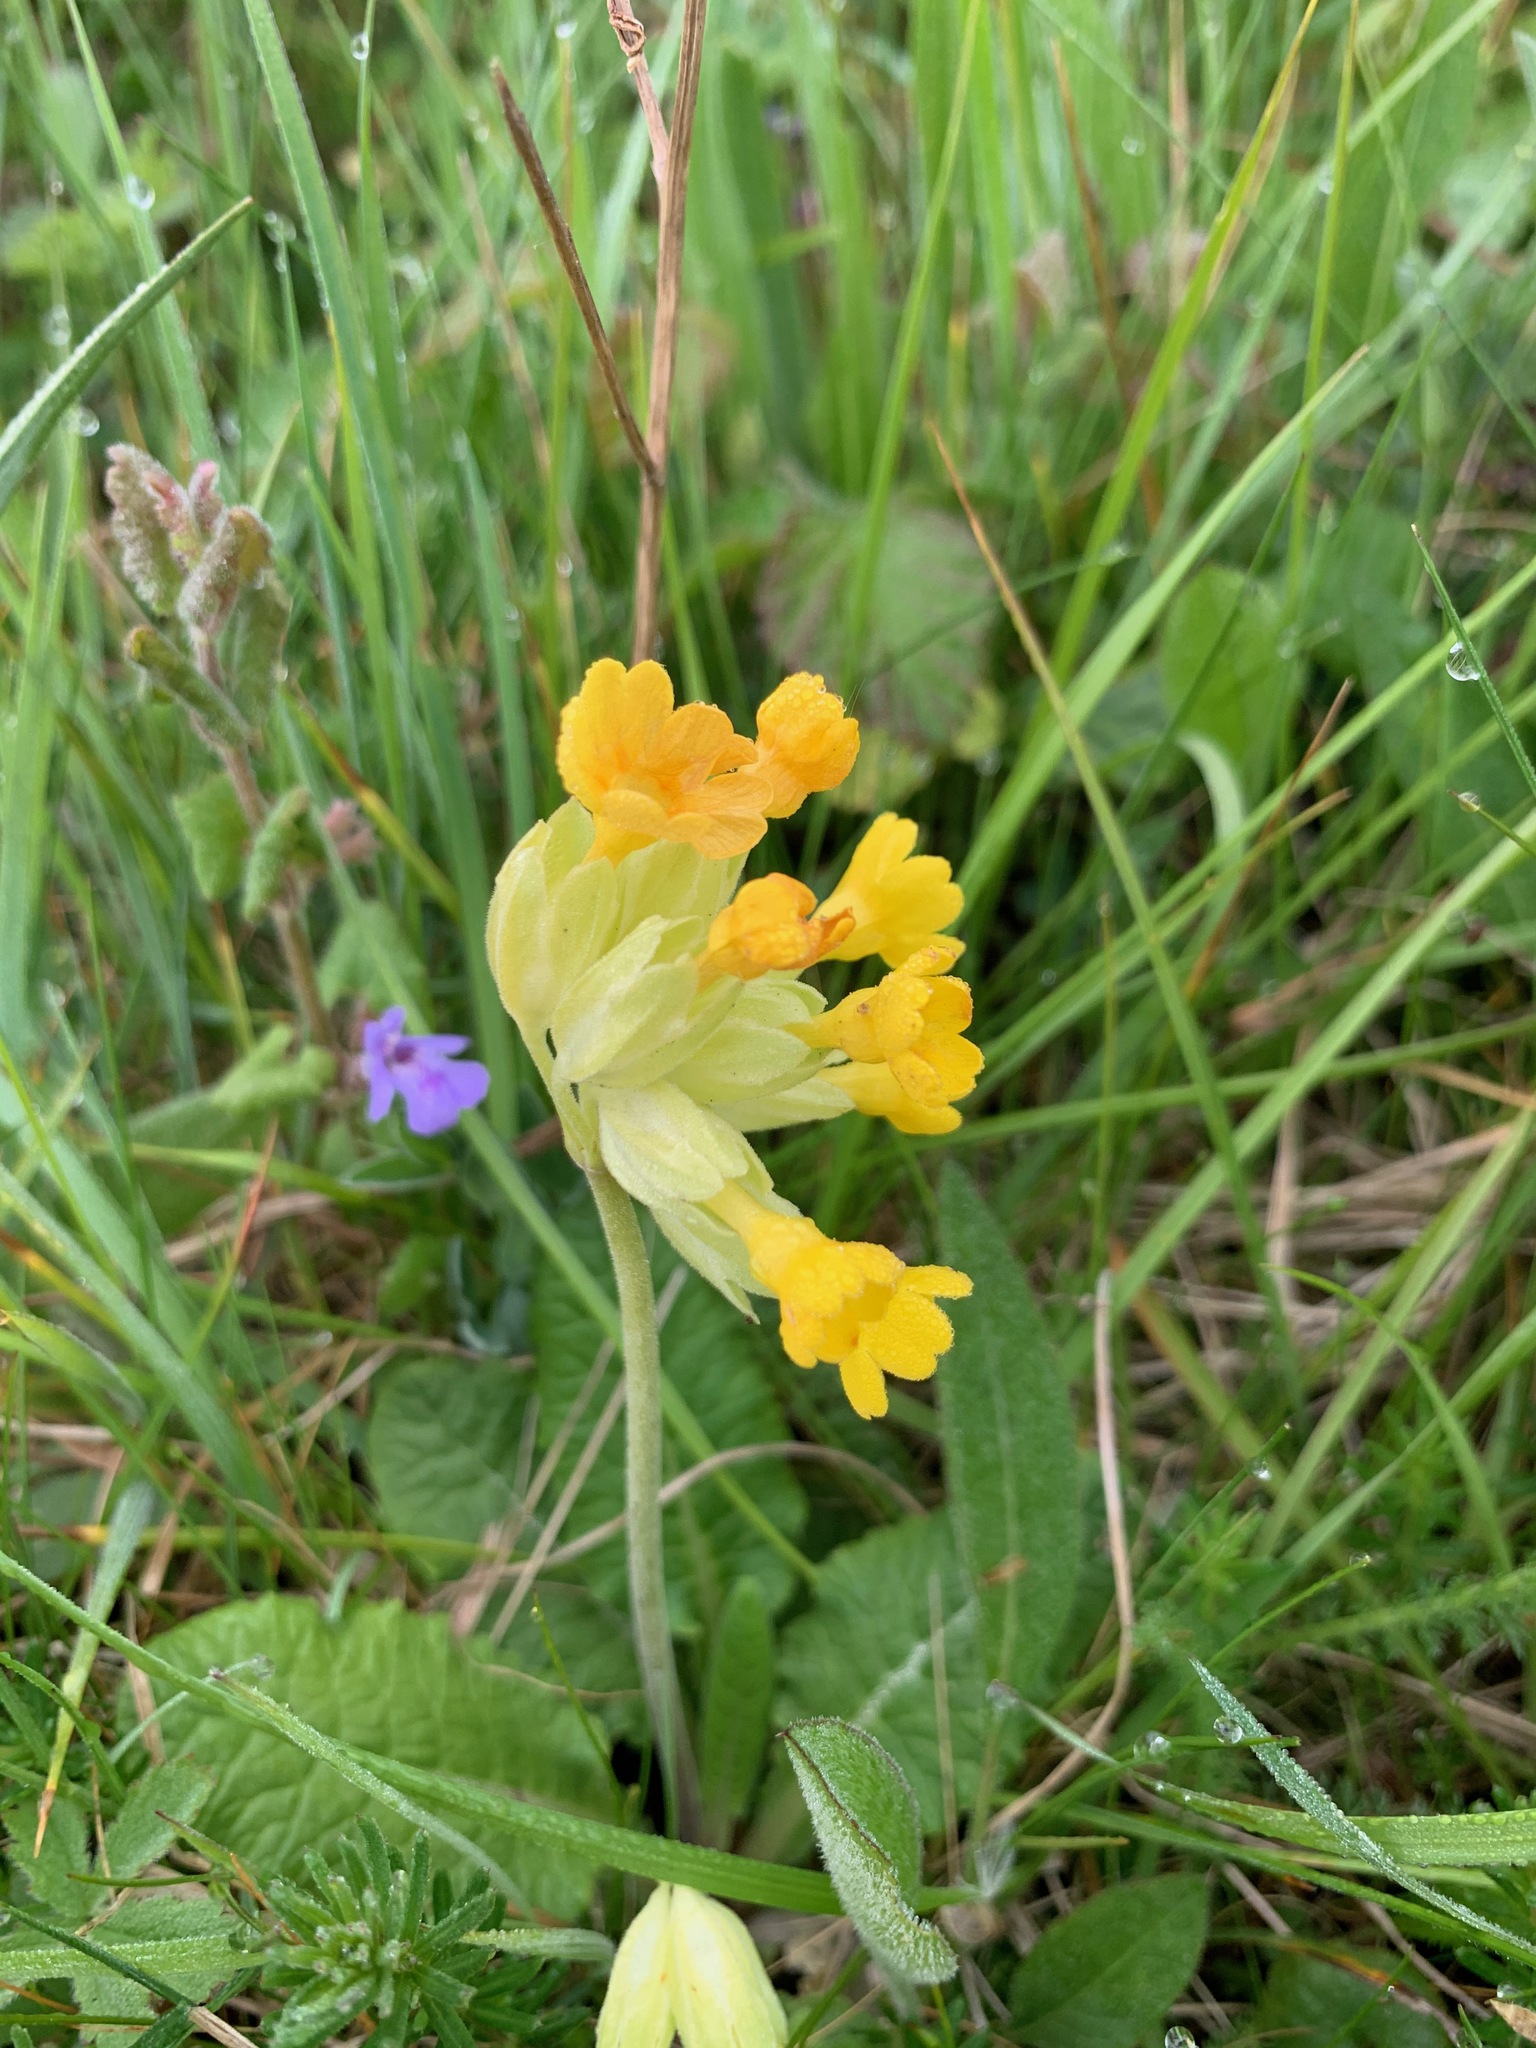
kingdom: Plantae
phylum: Tracheophyta
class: Magnoliopsida
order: Ericales
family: Primulaceae
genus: Primula
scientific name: Primula veris
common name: Cowslip
